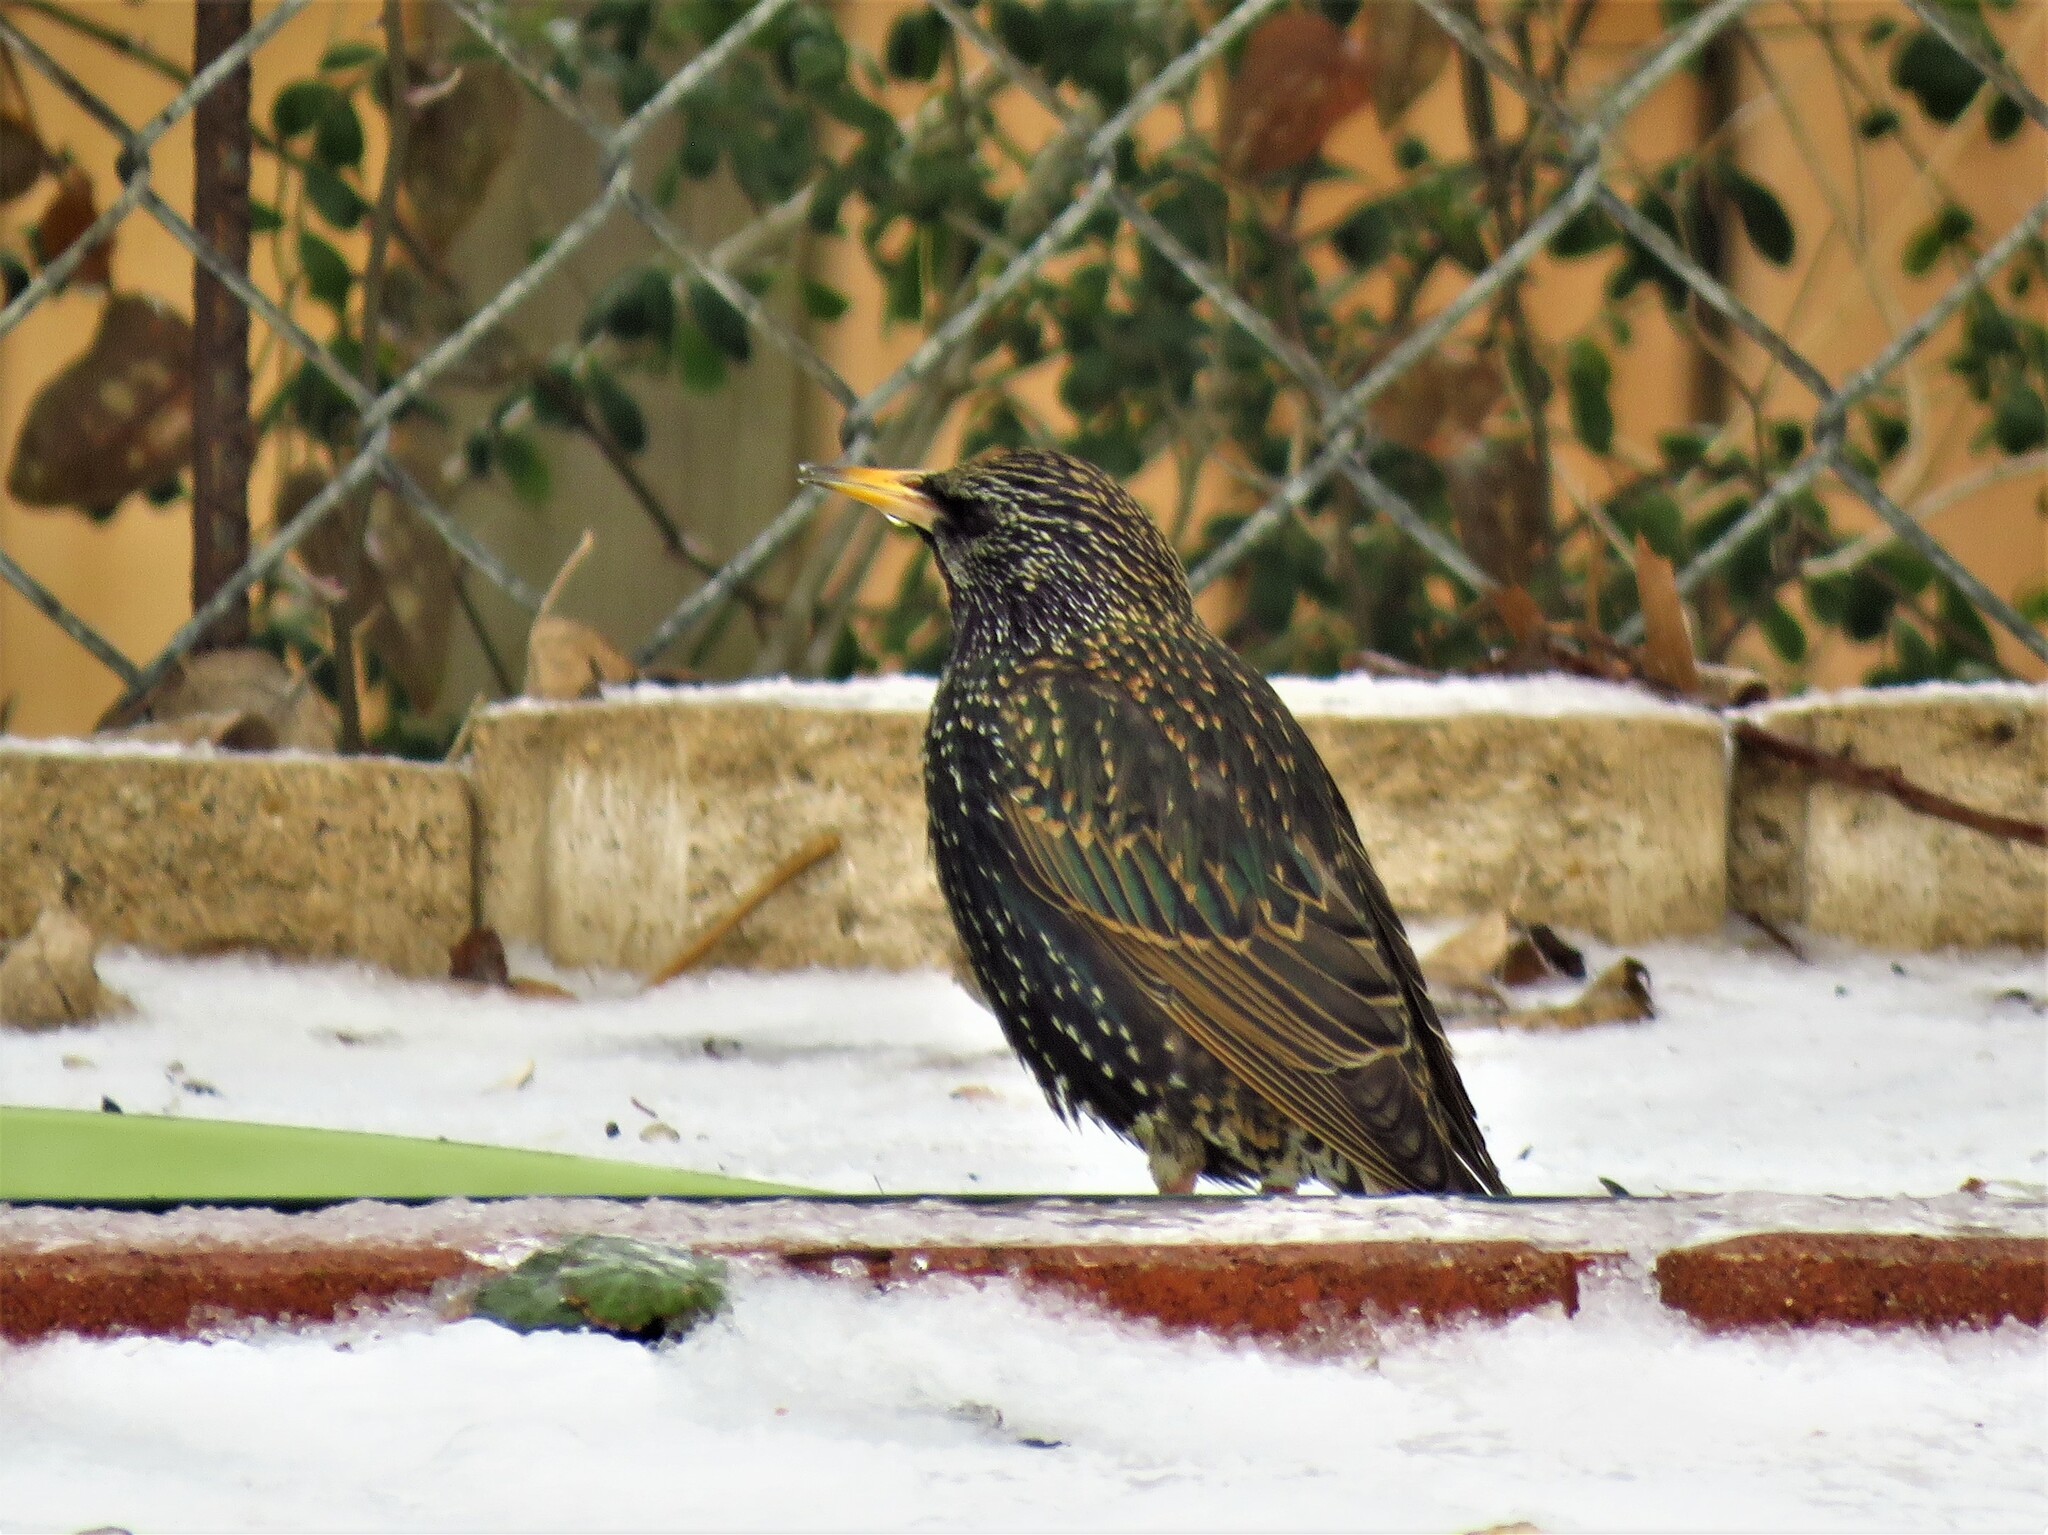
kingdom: Animalia
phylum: Chordata
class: Aves
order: Passeriformes
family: Sturnidae
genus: Sturnus
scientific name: Sturnus vulgaris
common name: Common starling
